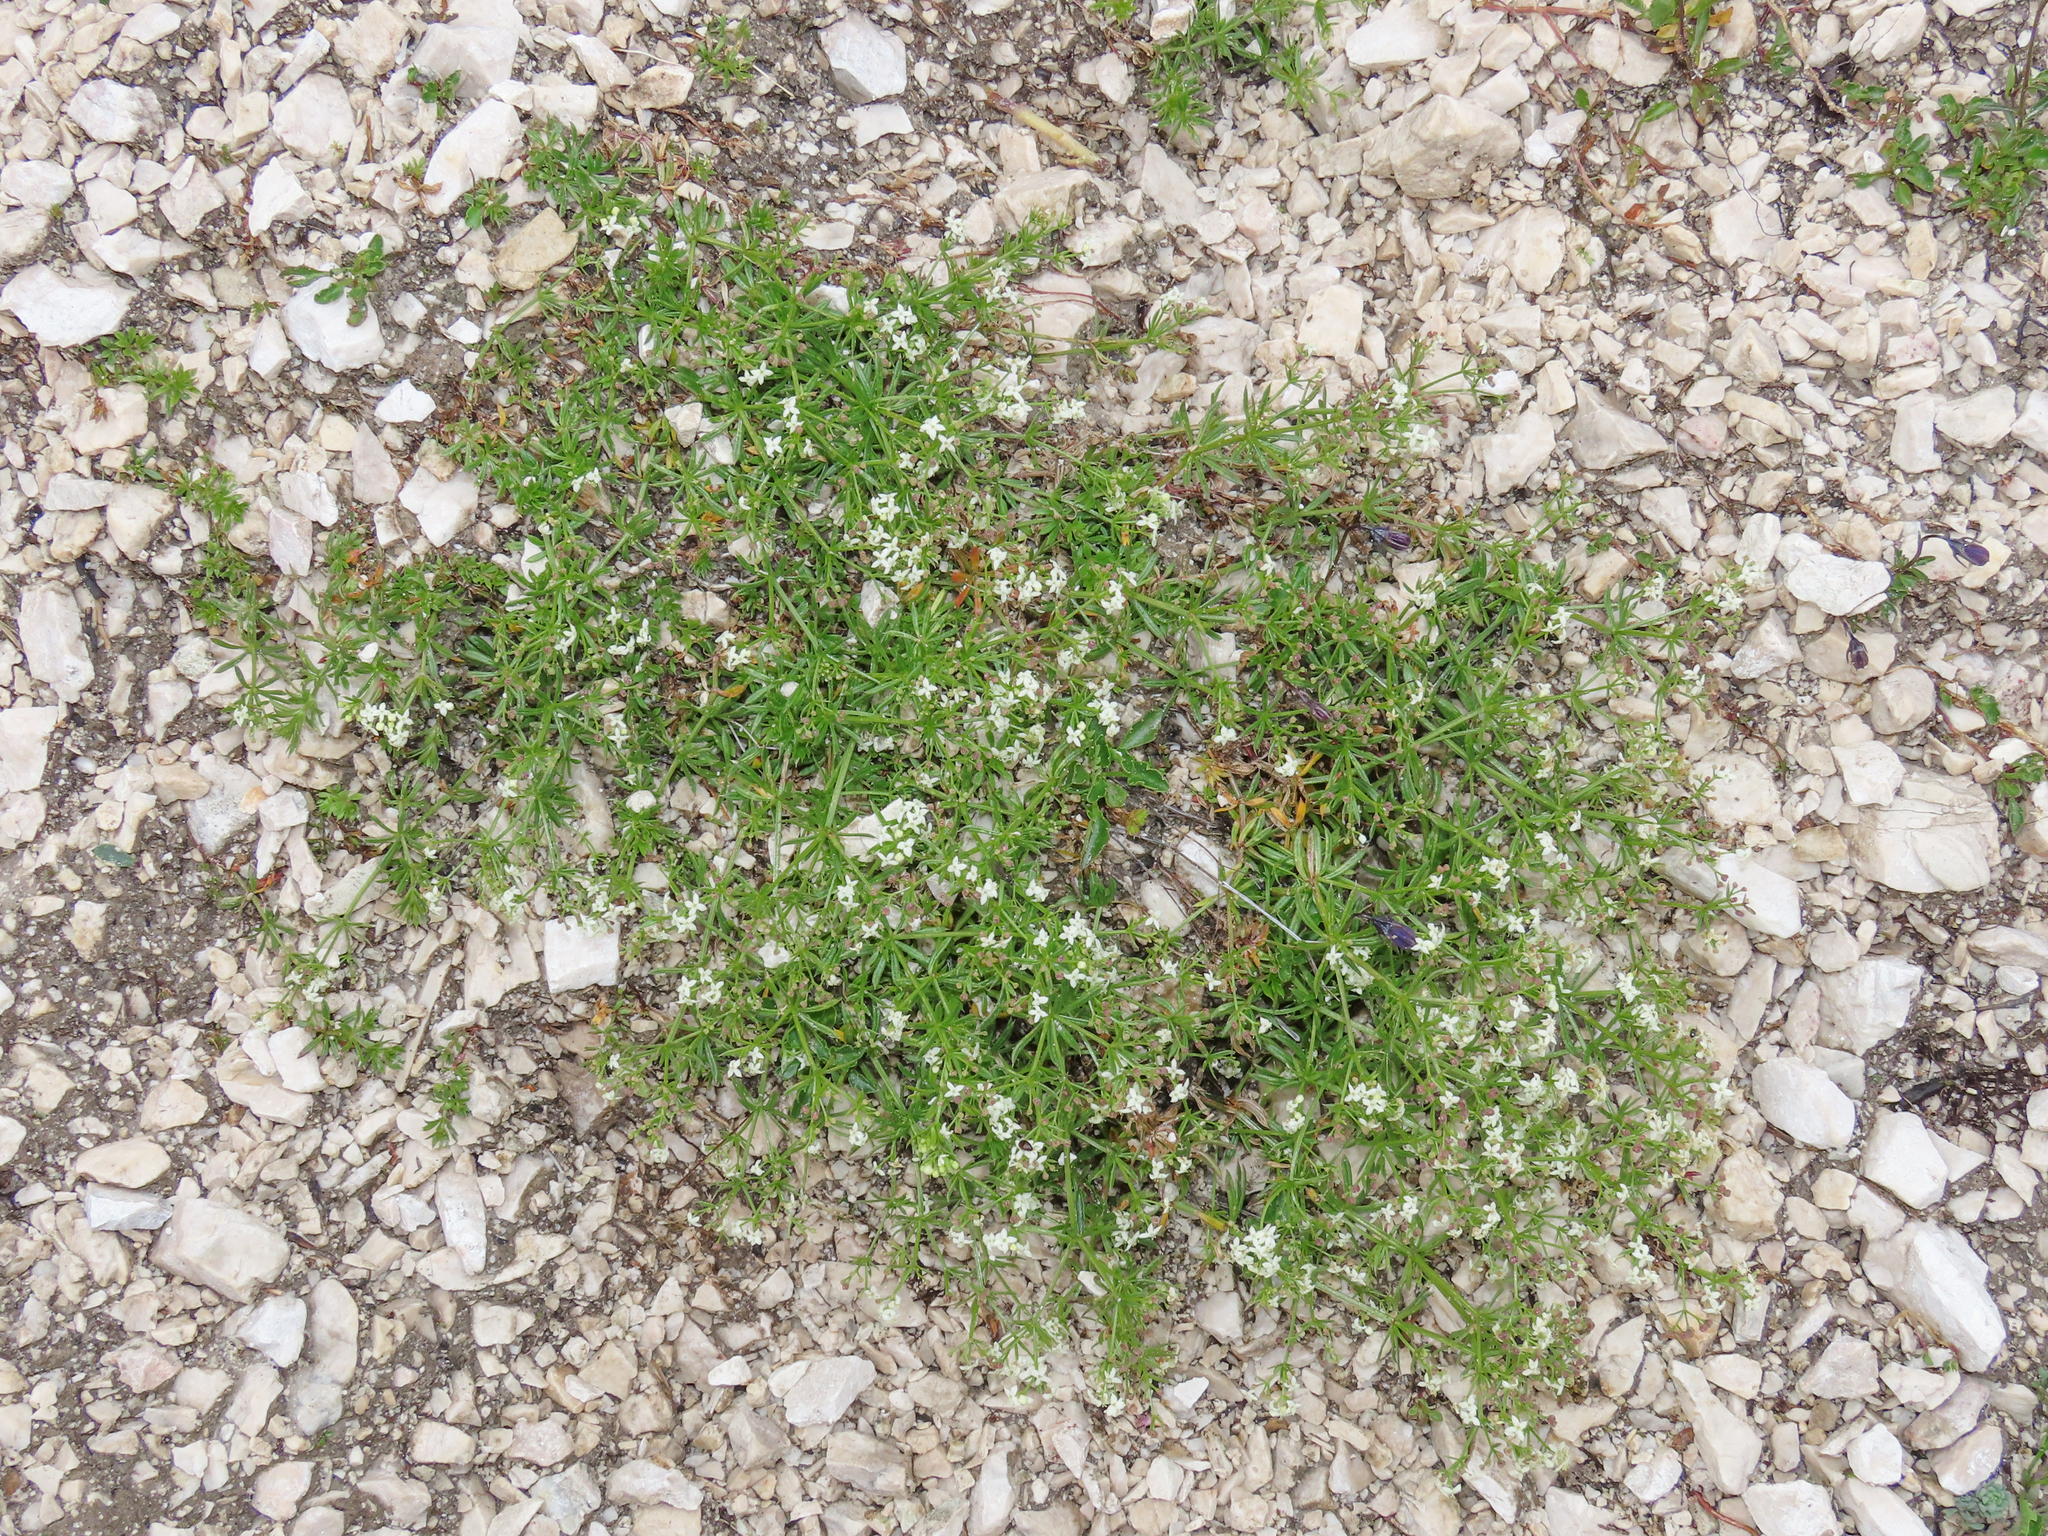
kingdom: Plantae
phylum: Tracheophyta
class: Magnoliopsida
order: Gentianales
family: Rubiaceae
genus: Galium
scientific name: Galium anisophyllon
